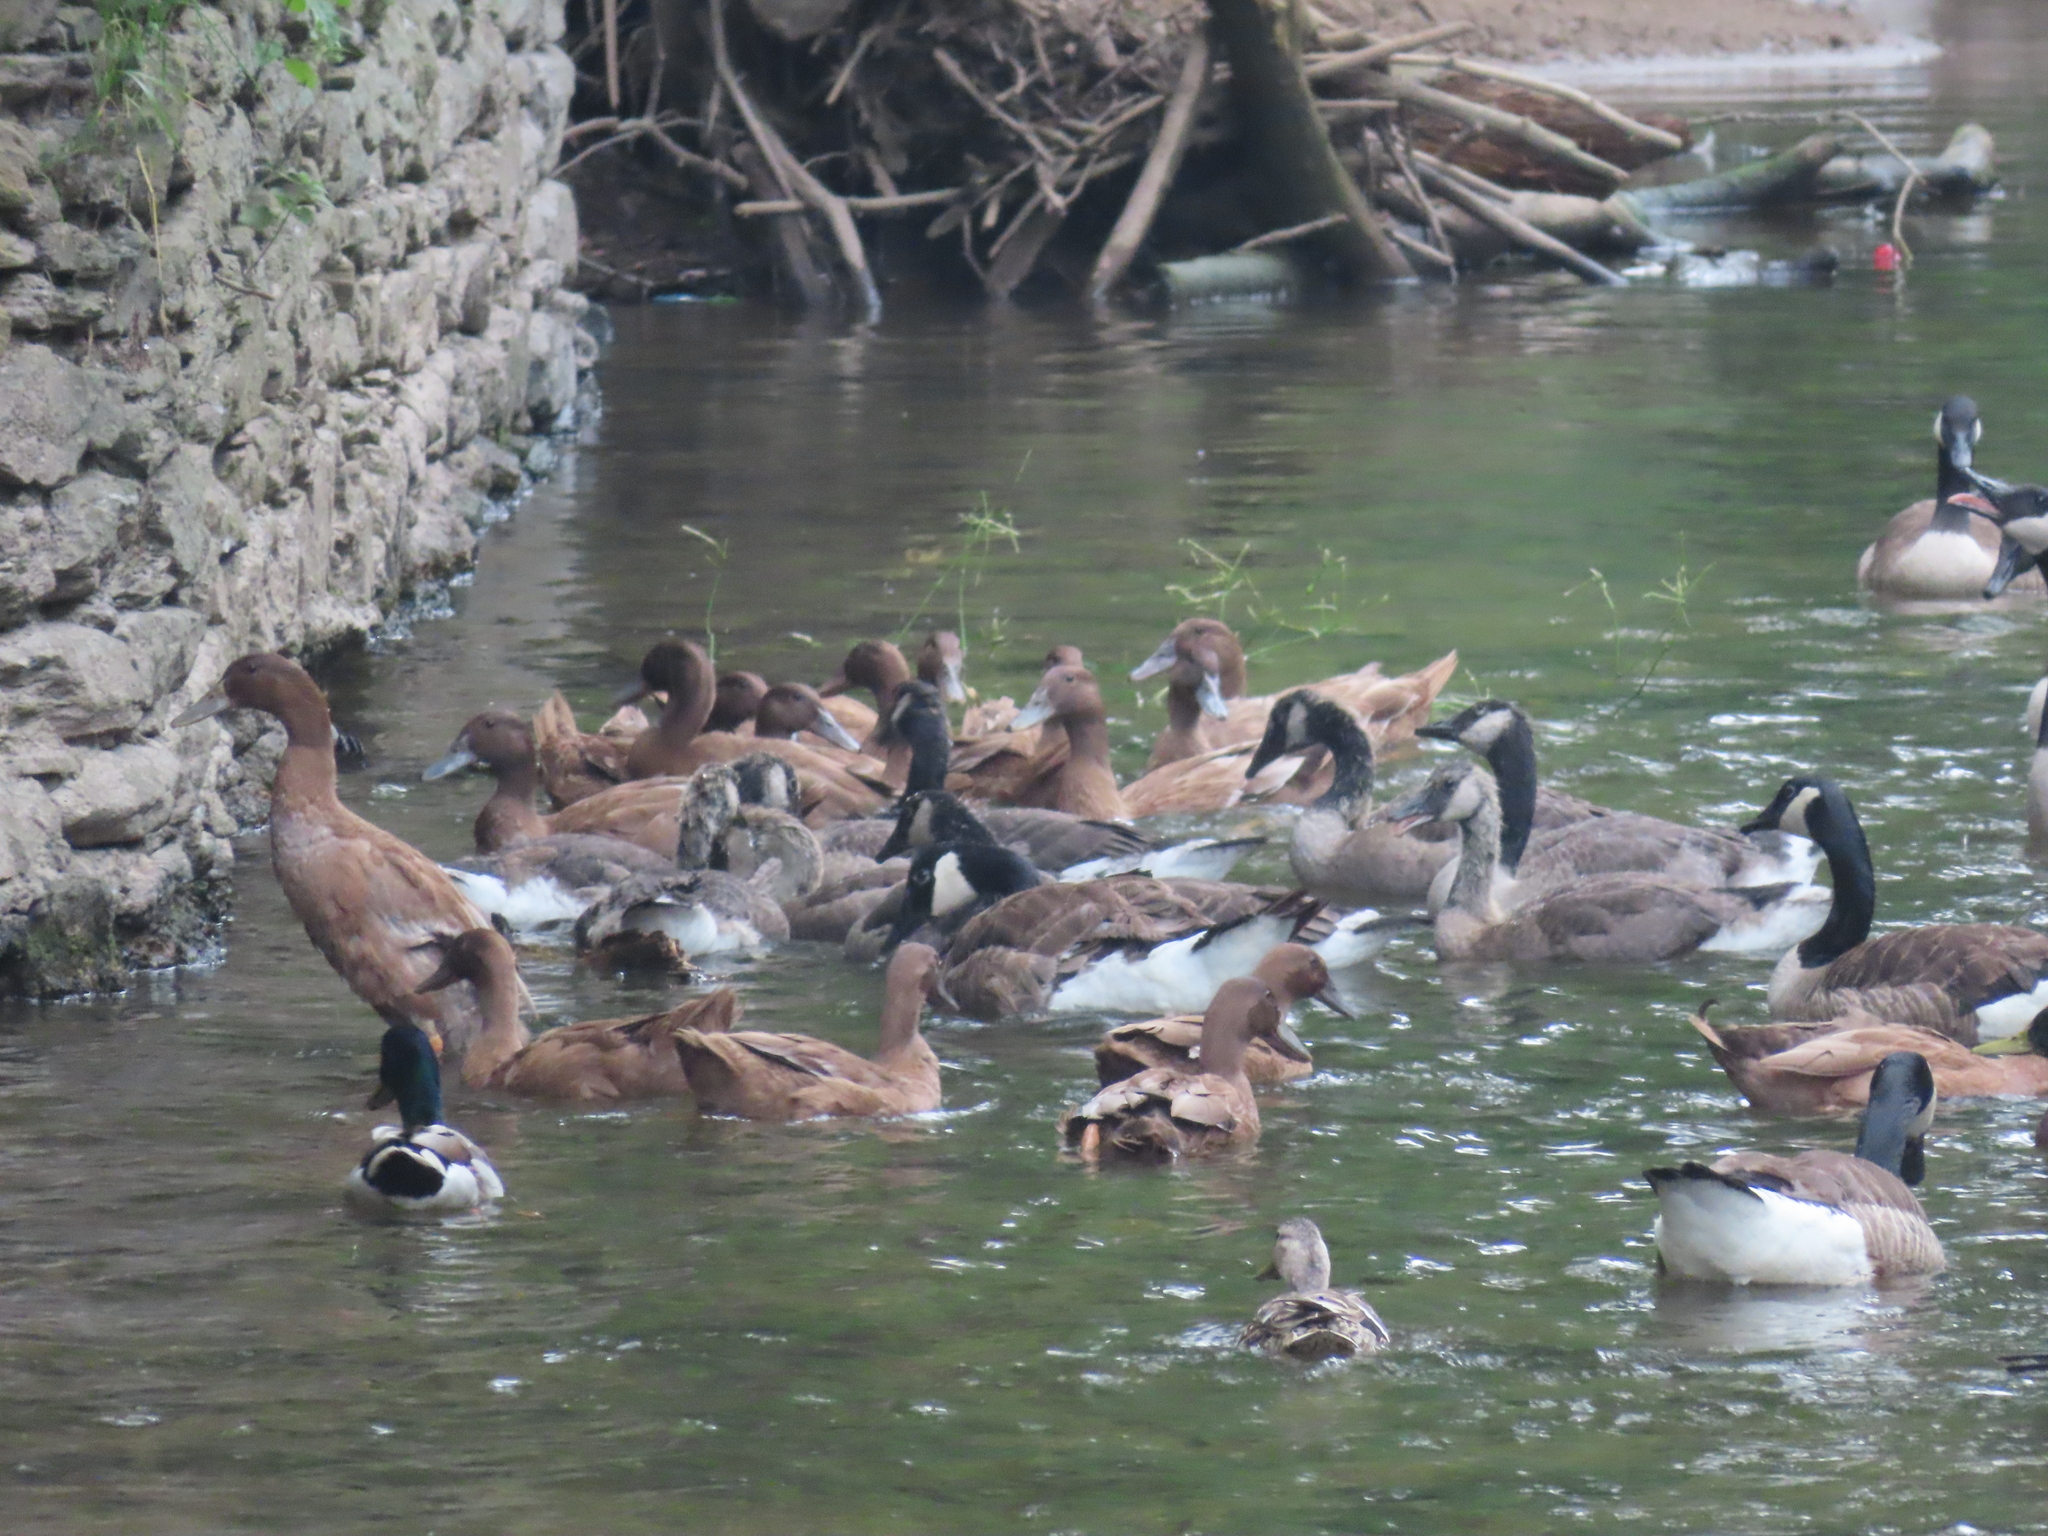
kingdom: Animalia
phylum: Chordata
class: Aves
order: Anseriformes
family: Anatidae
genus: Anas
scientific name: Anas platyrhynchos
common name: Mallard
